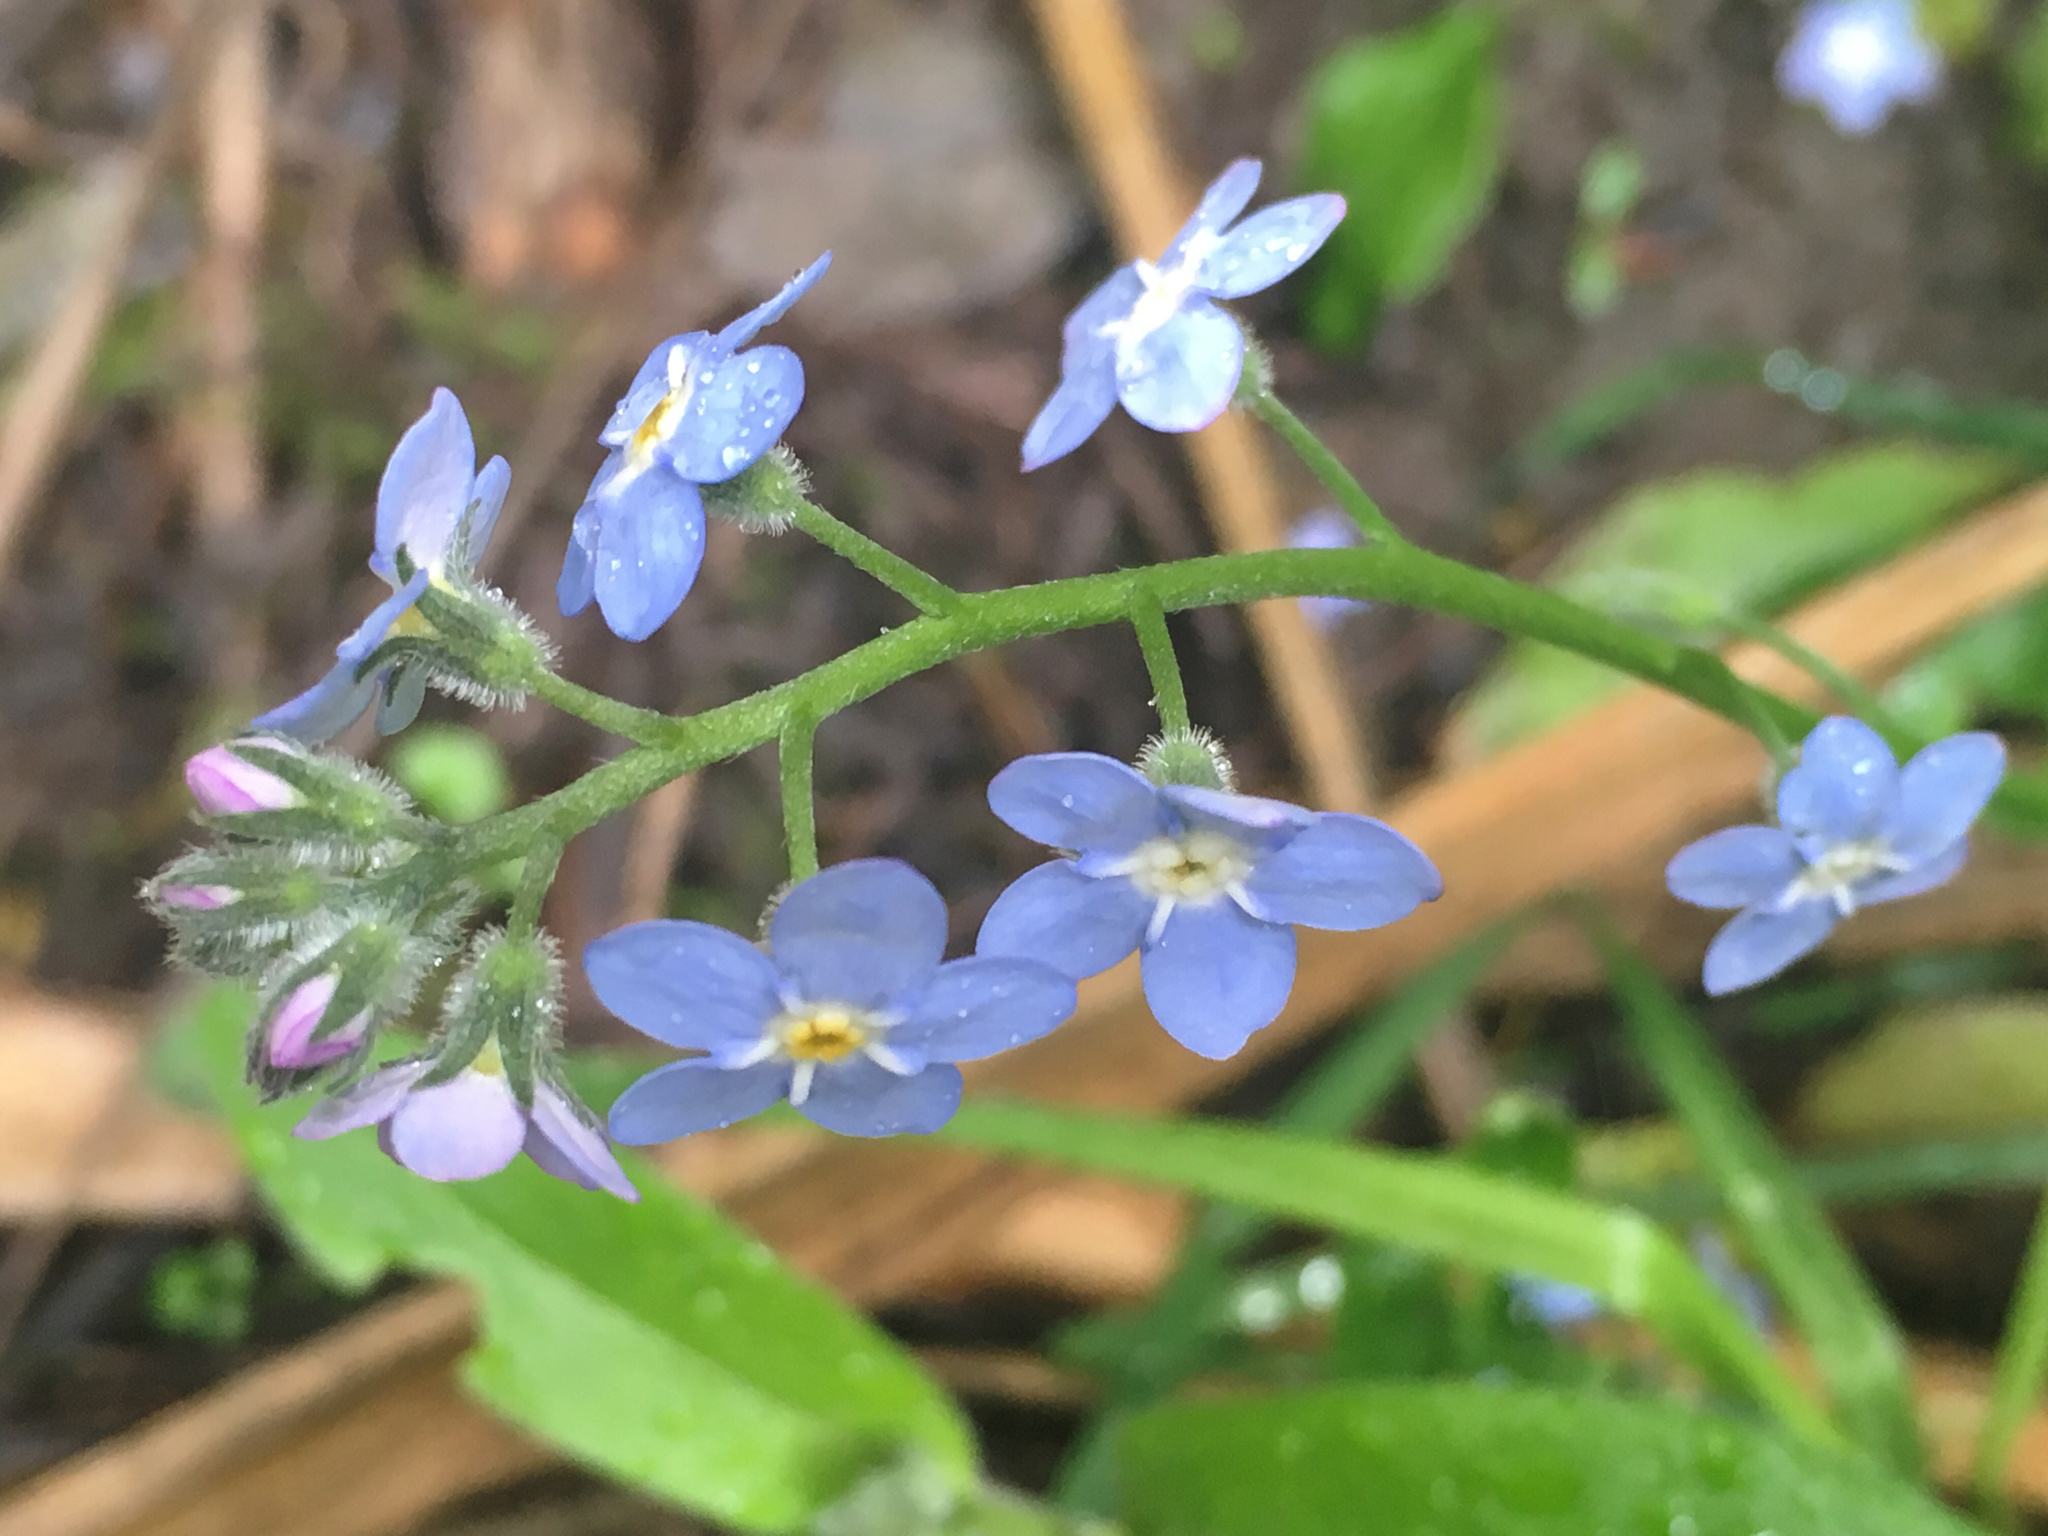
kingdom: Plantae
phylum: Tracheophyta
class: Magnoliopsida
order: Boraginales
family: Boraginaceae
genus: Myosotis
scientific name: Myosotis sylvatica
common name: Wood forget-me-not
